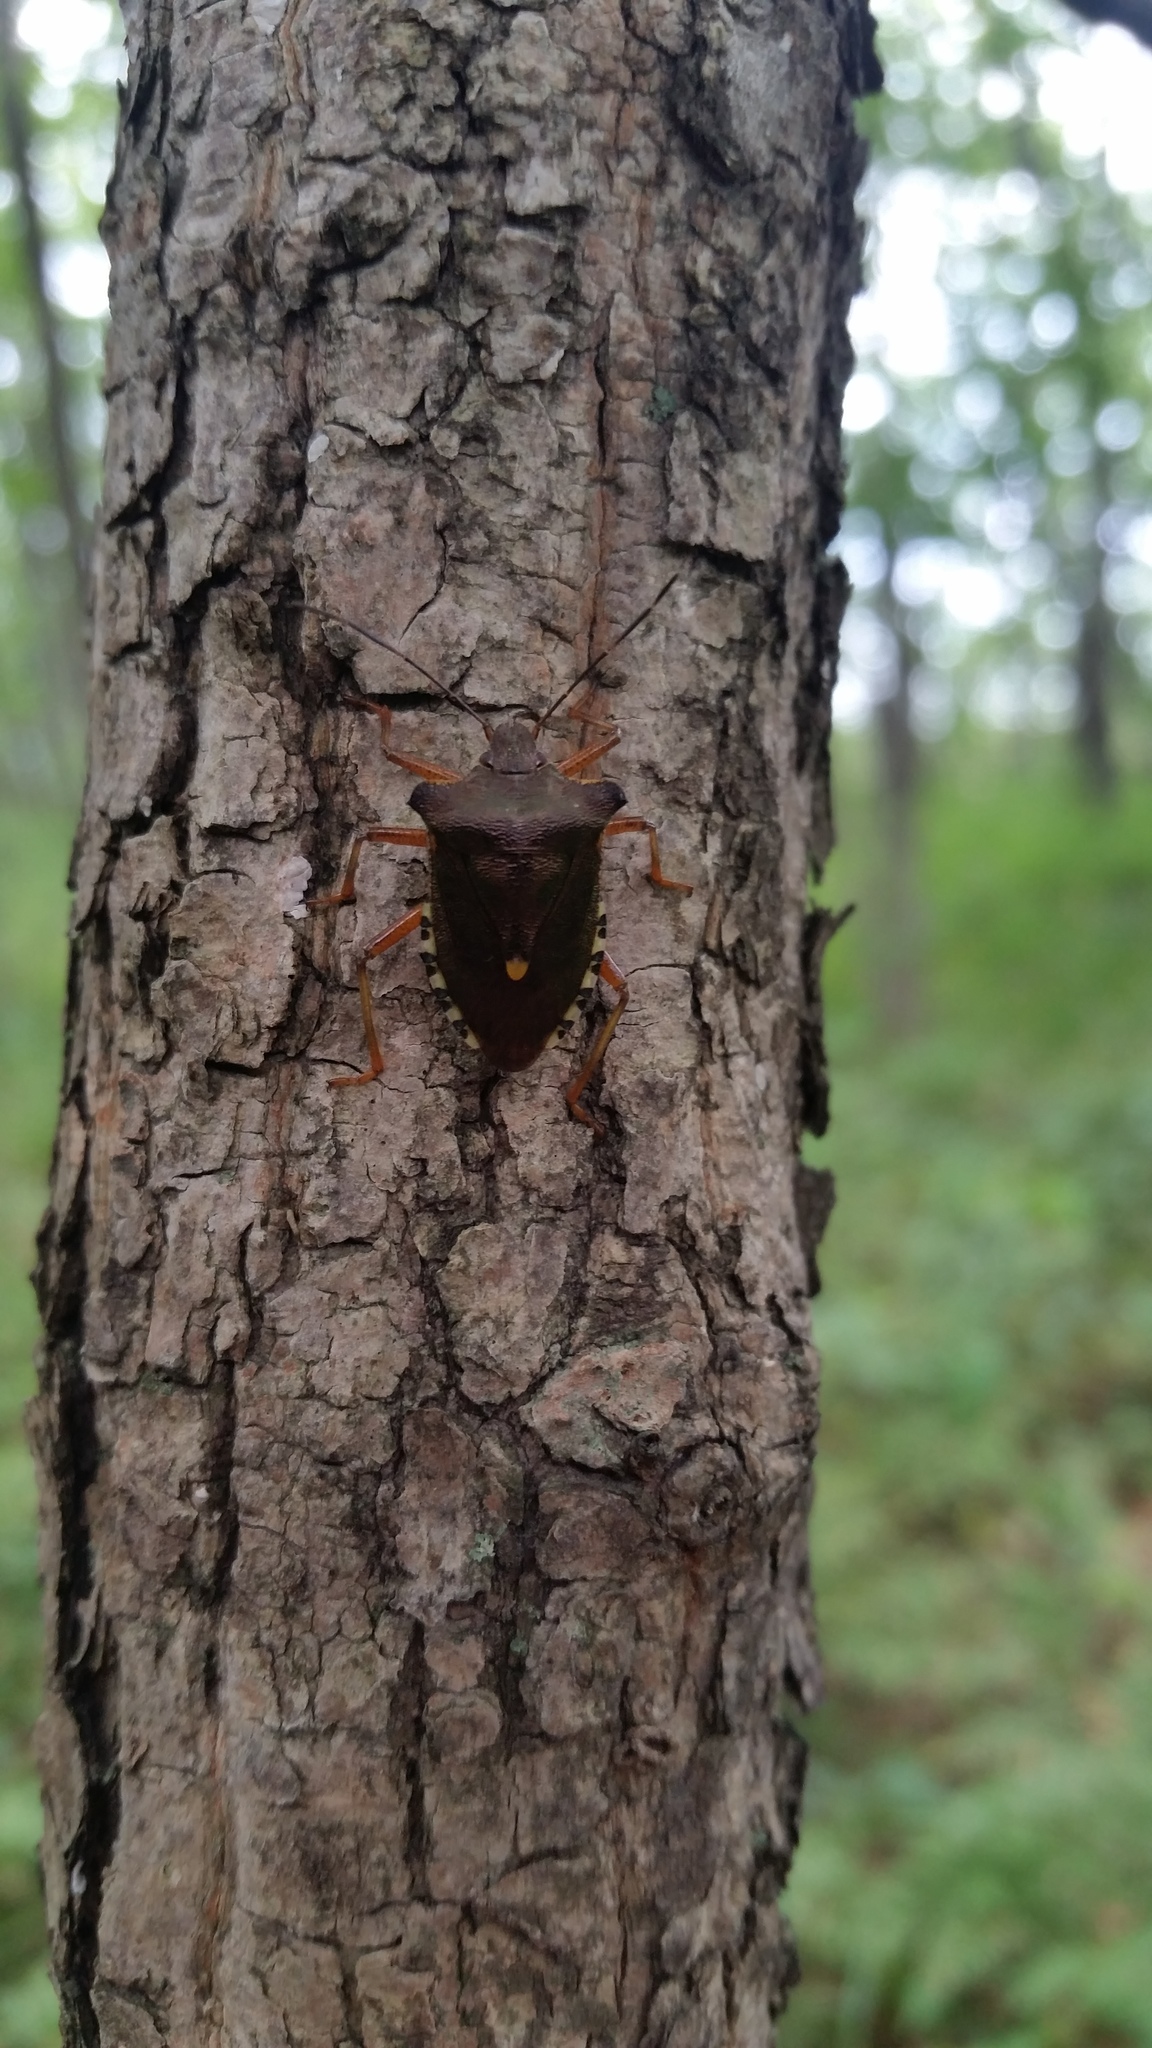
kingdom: Animalia
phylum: Arthropoda
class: Insecta
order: Hemiptera
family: Pentatomidae
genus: Pentatoma
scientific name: Pentatoma rufipes
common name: Forest bug
